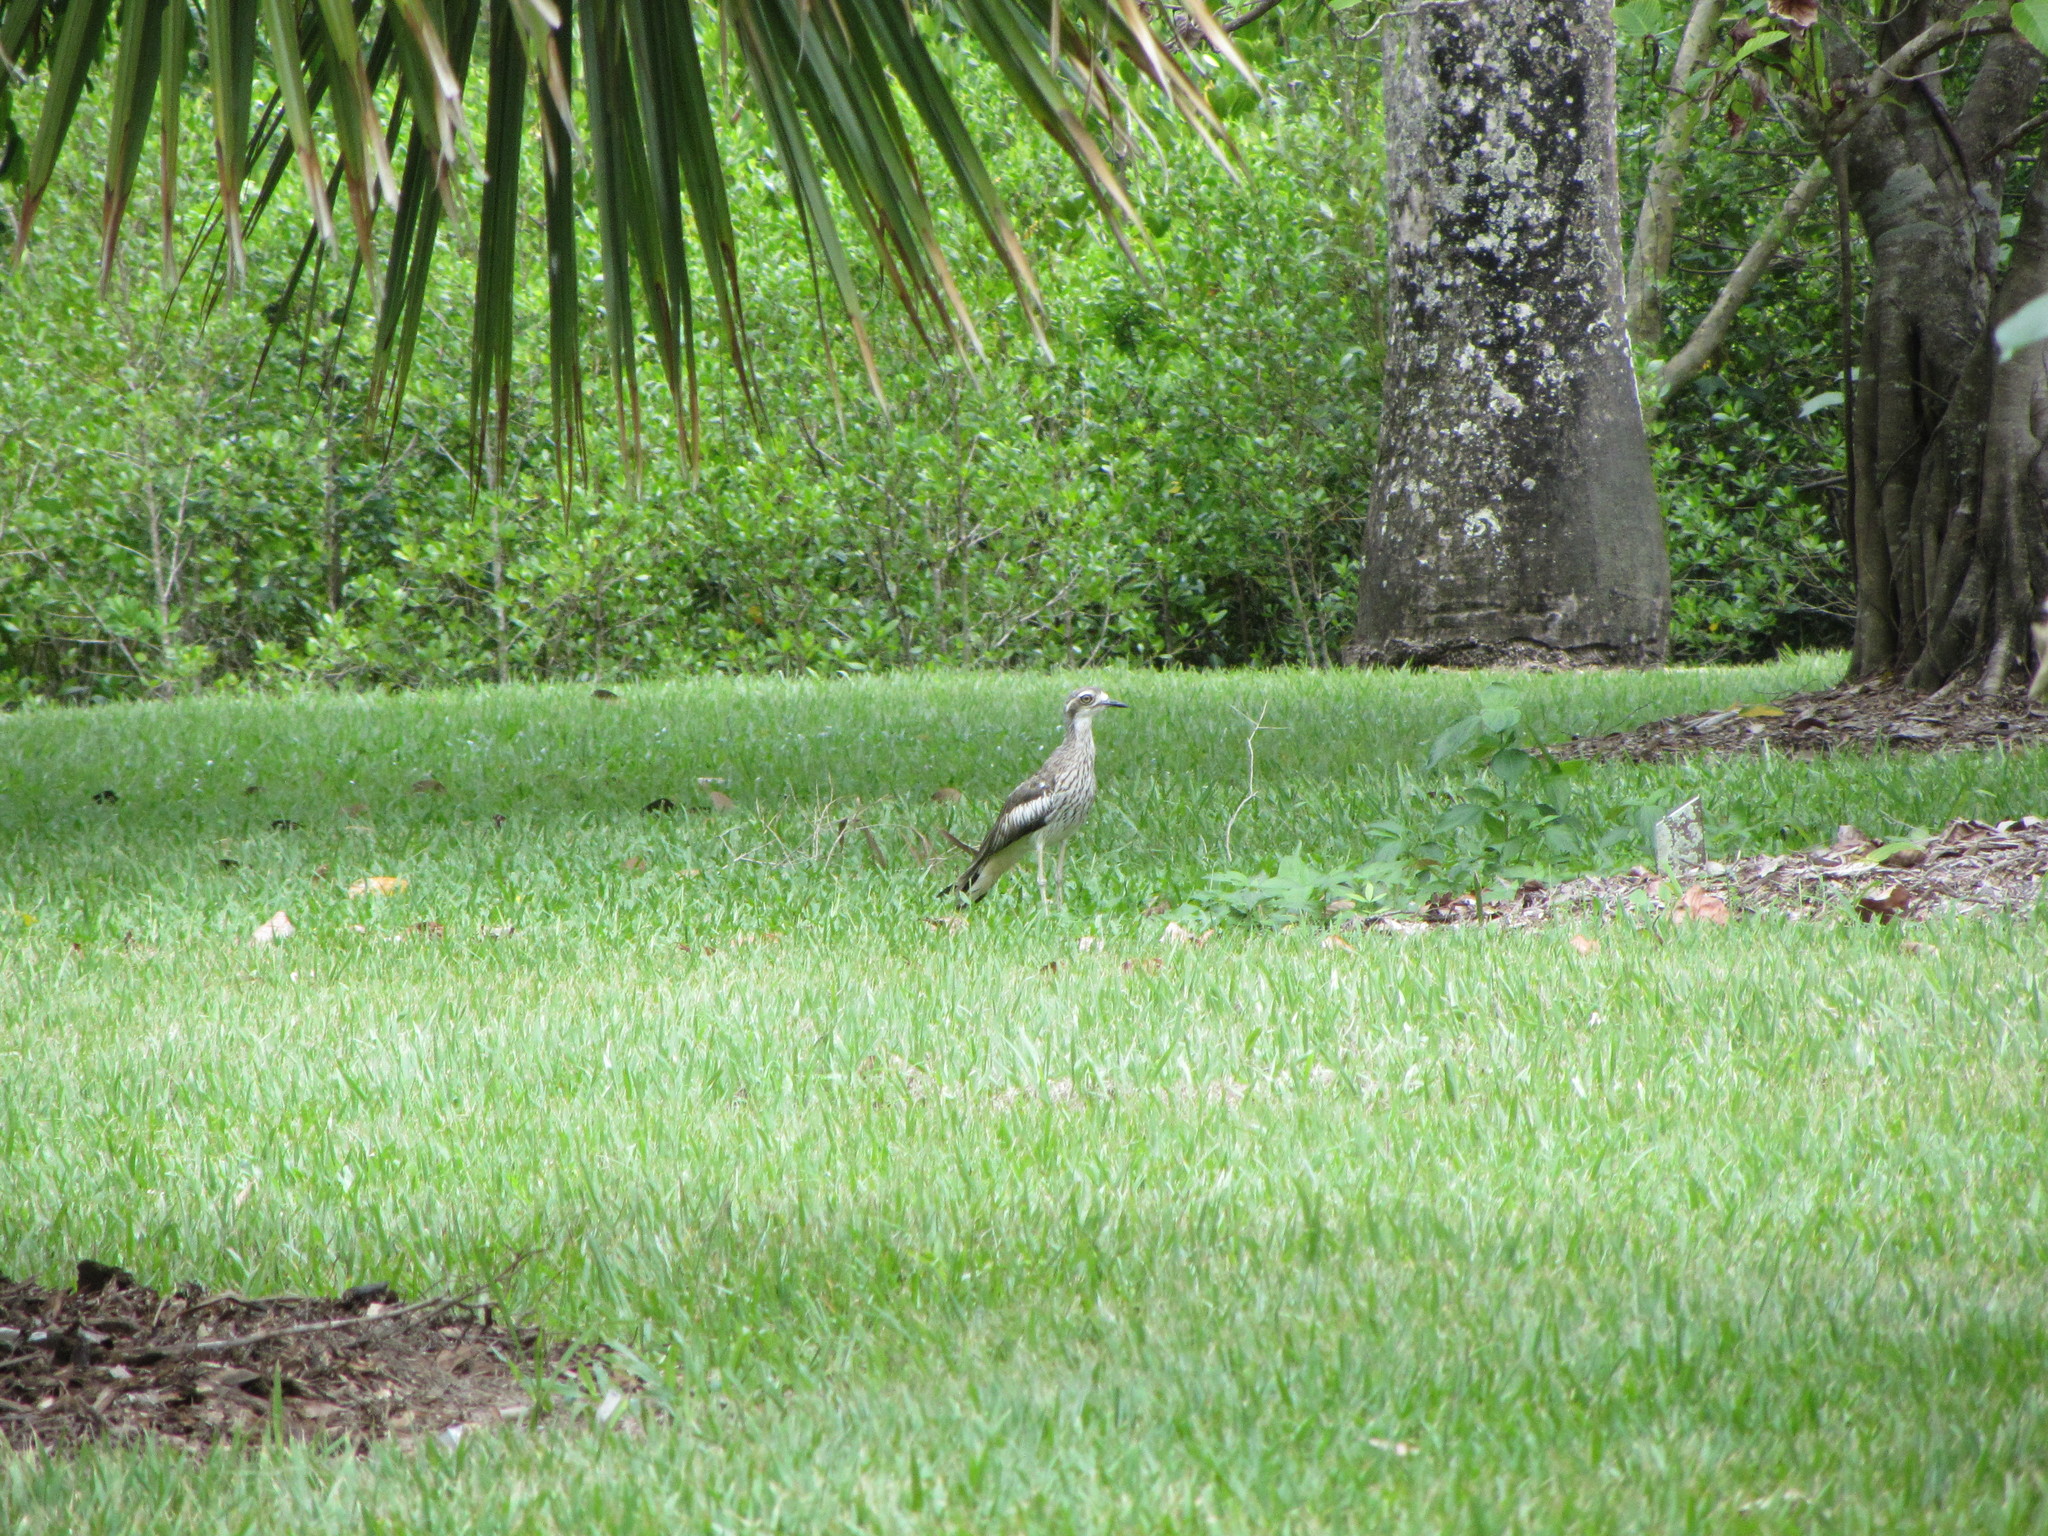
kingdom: Animalia
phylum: Chordata
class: Aves
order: Charadriiformes
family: Burhinidae
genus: Burhinus
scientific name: Burhinus grallarius
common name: Bush stone-curlew
